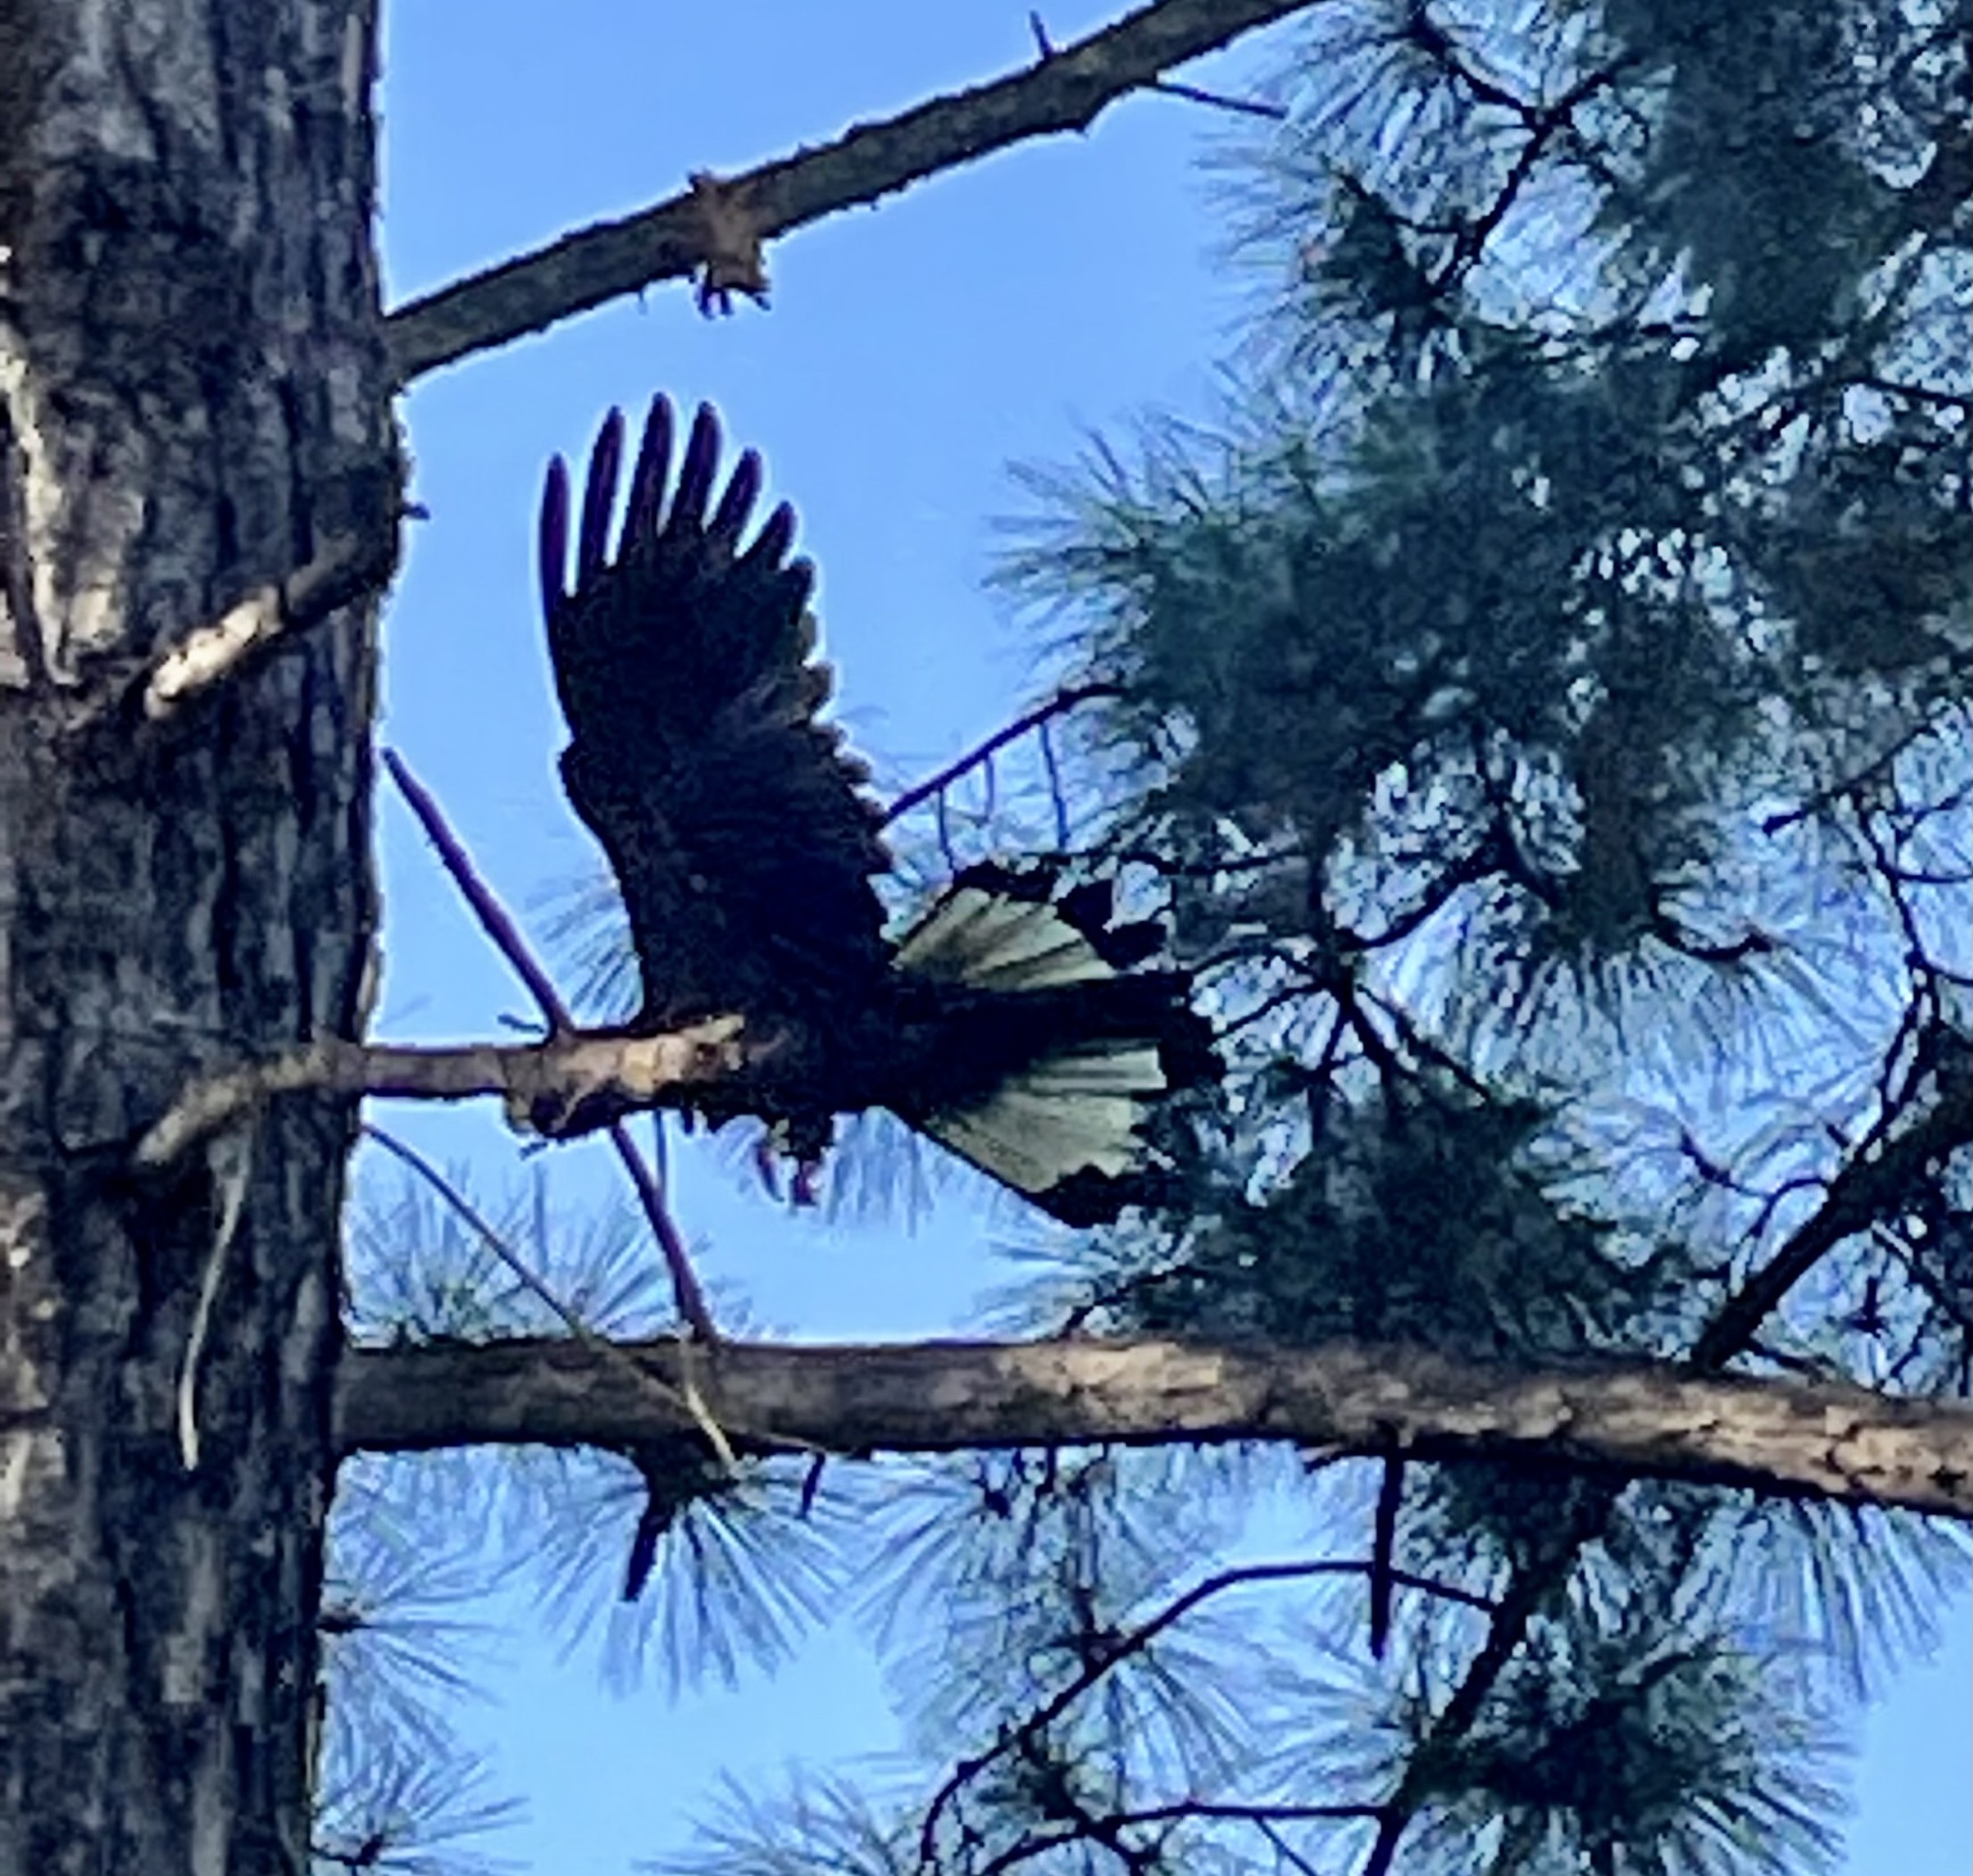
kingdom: Animalia
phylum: Chordata
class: Aves
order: Psittaciformes
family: Cacatuidae
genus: Zanda
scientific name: Zanda funerea
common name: Yellow-tailed black-cockatoo
